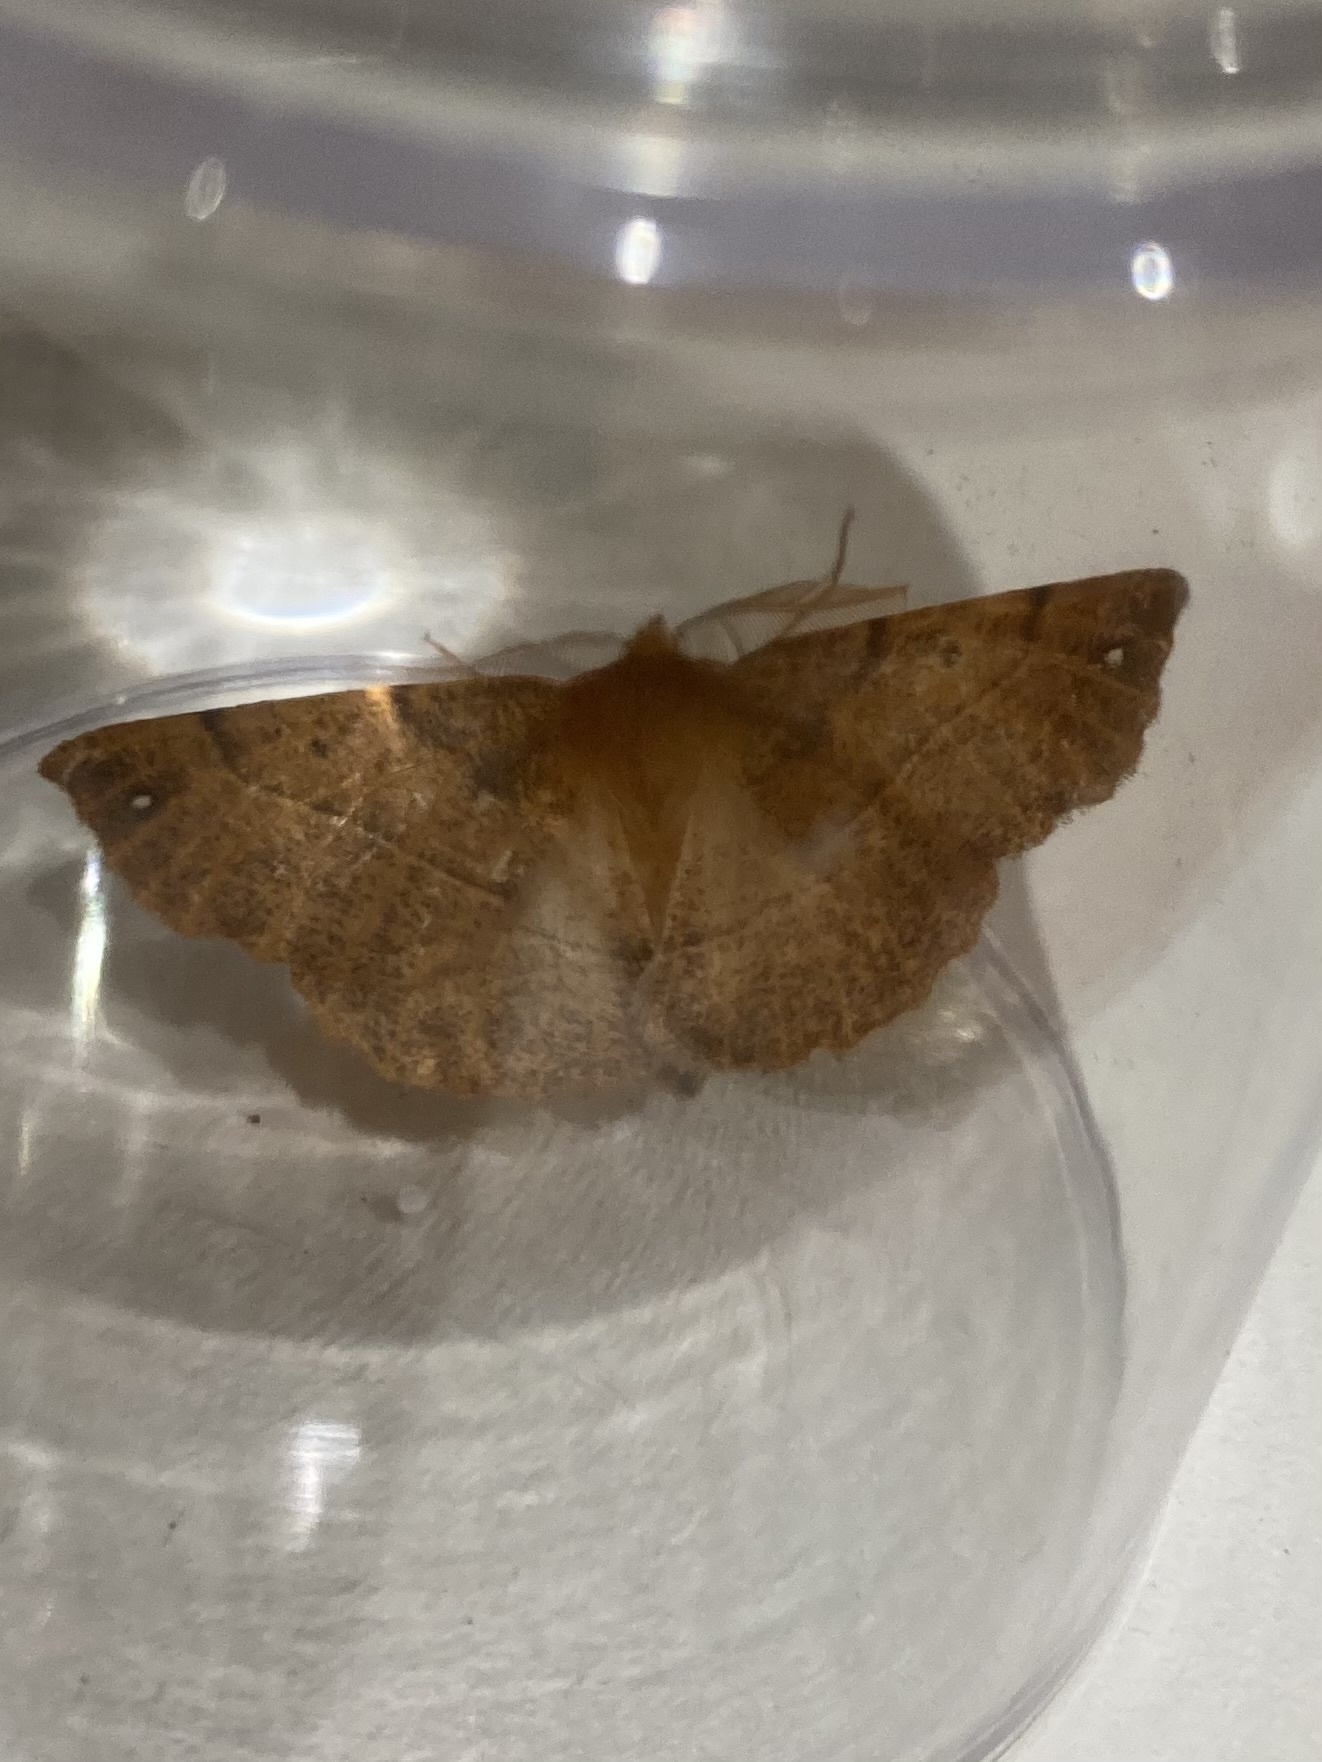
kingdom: Animalia
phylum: Arthropoda
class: Insecta
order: Lepidoptera
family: Geometridae
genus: Colotois
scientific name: Colotois pennaria
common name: Feathered thorn
